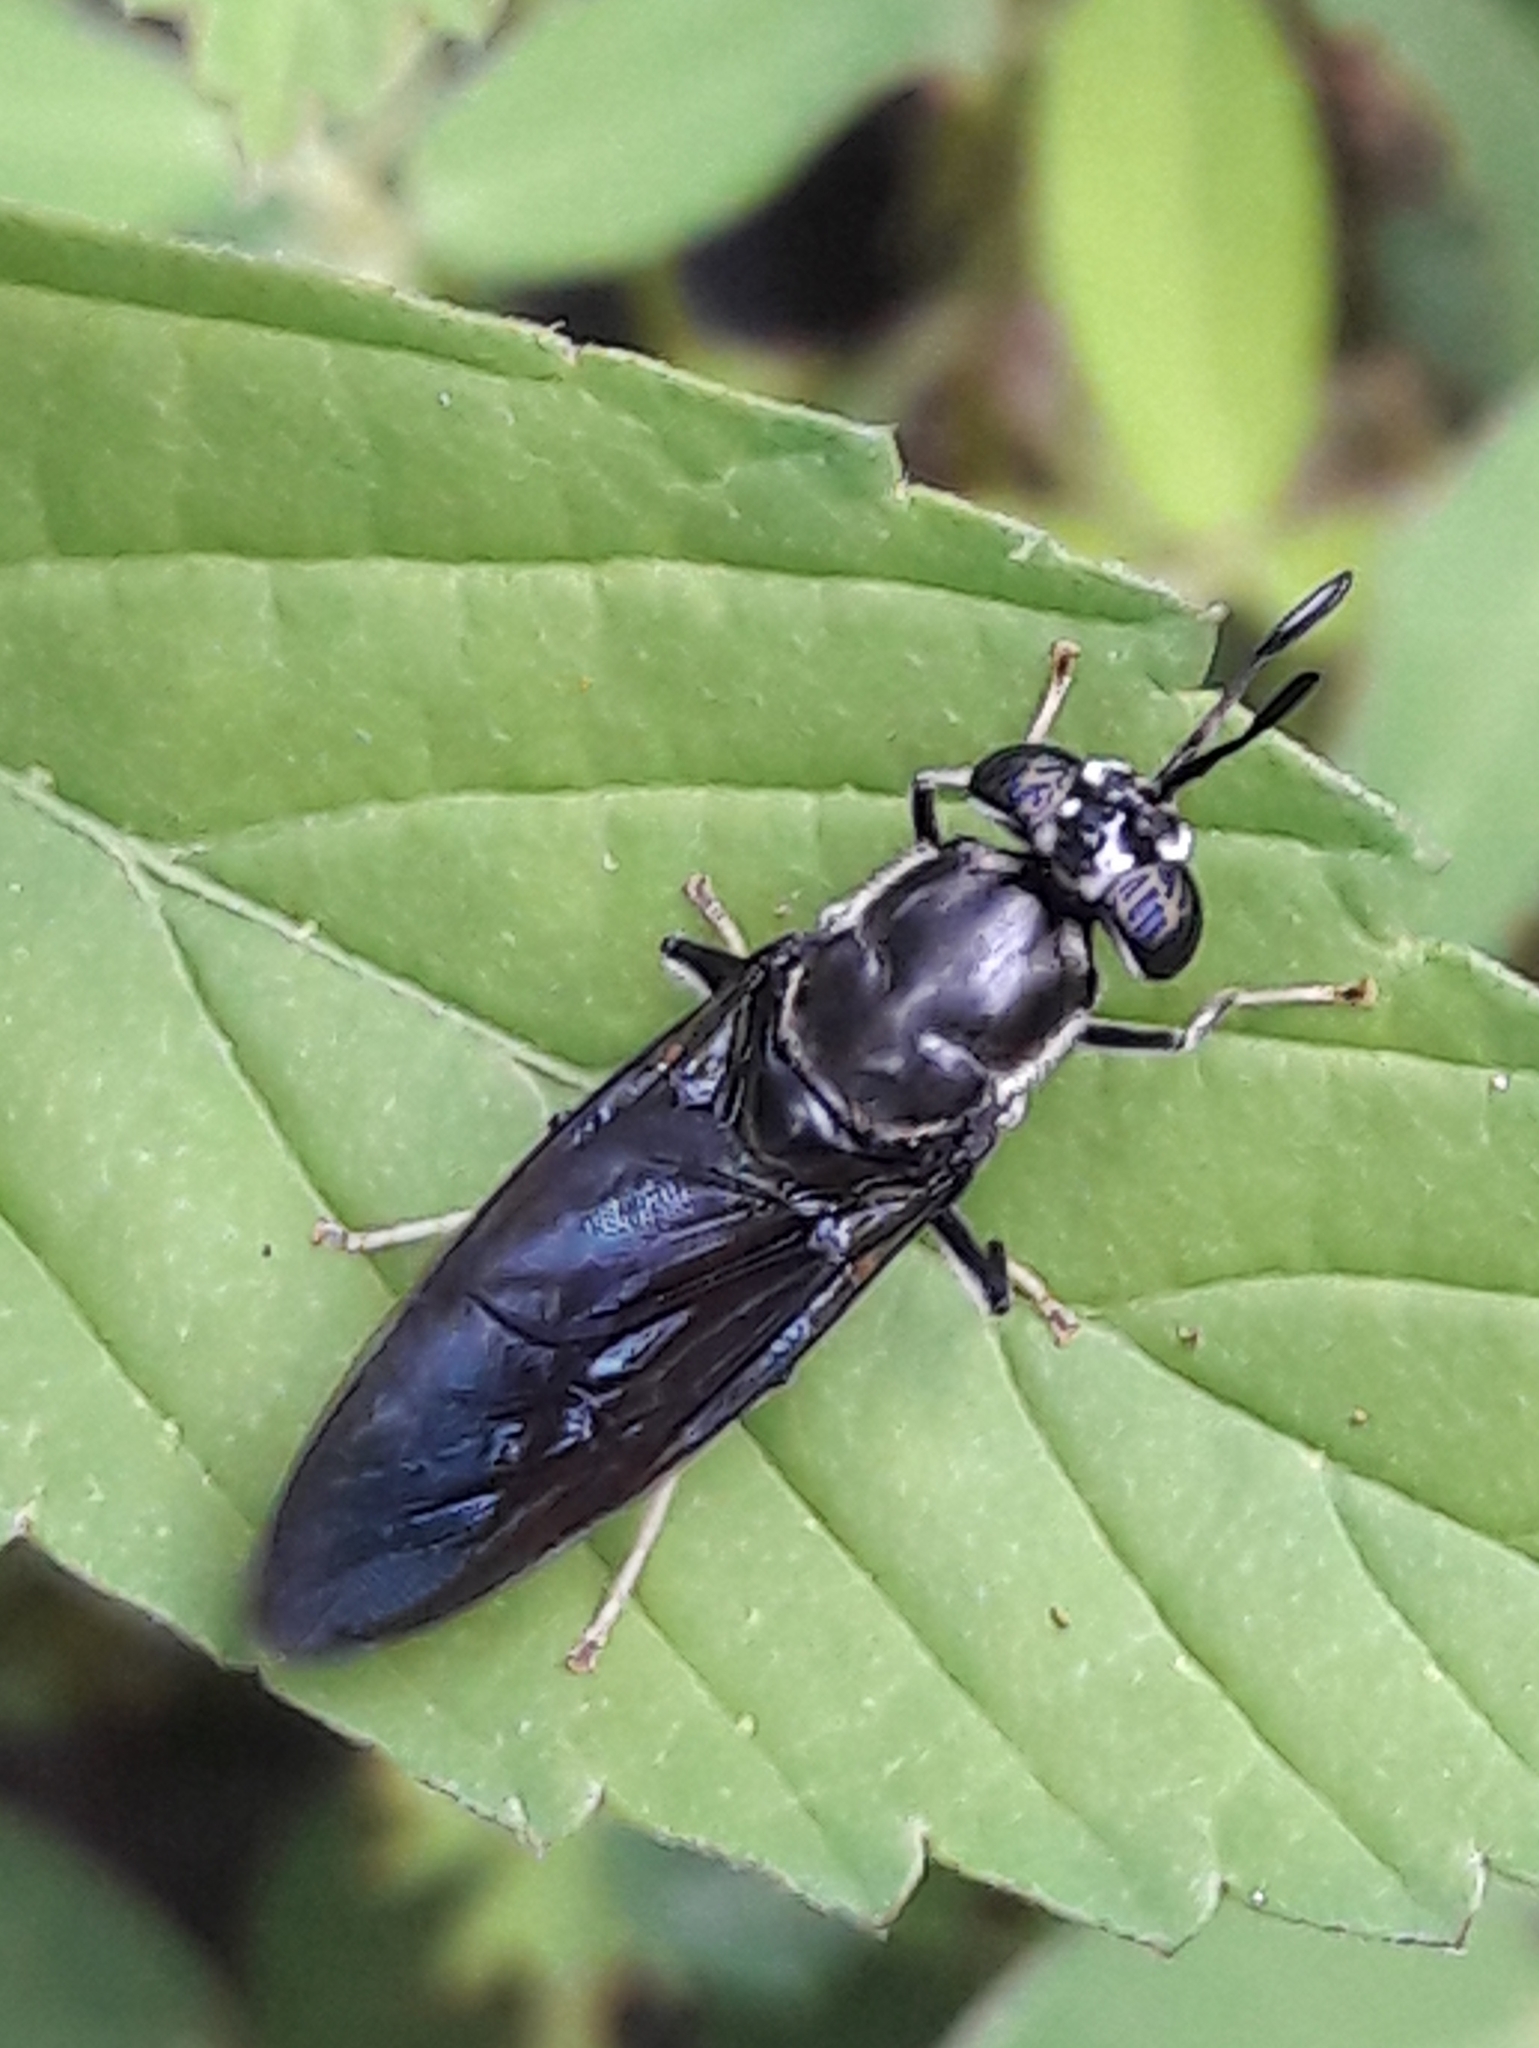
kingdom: Animalia
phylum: Arthropoda
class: Insecta
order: Diptera
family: Stratiomyidae
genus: Hermetia
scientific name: Hermetia illucens
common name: Black soldier fly
